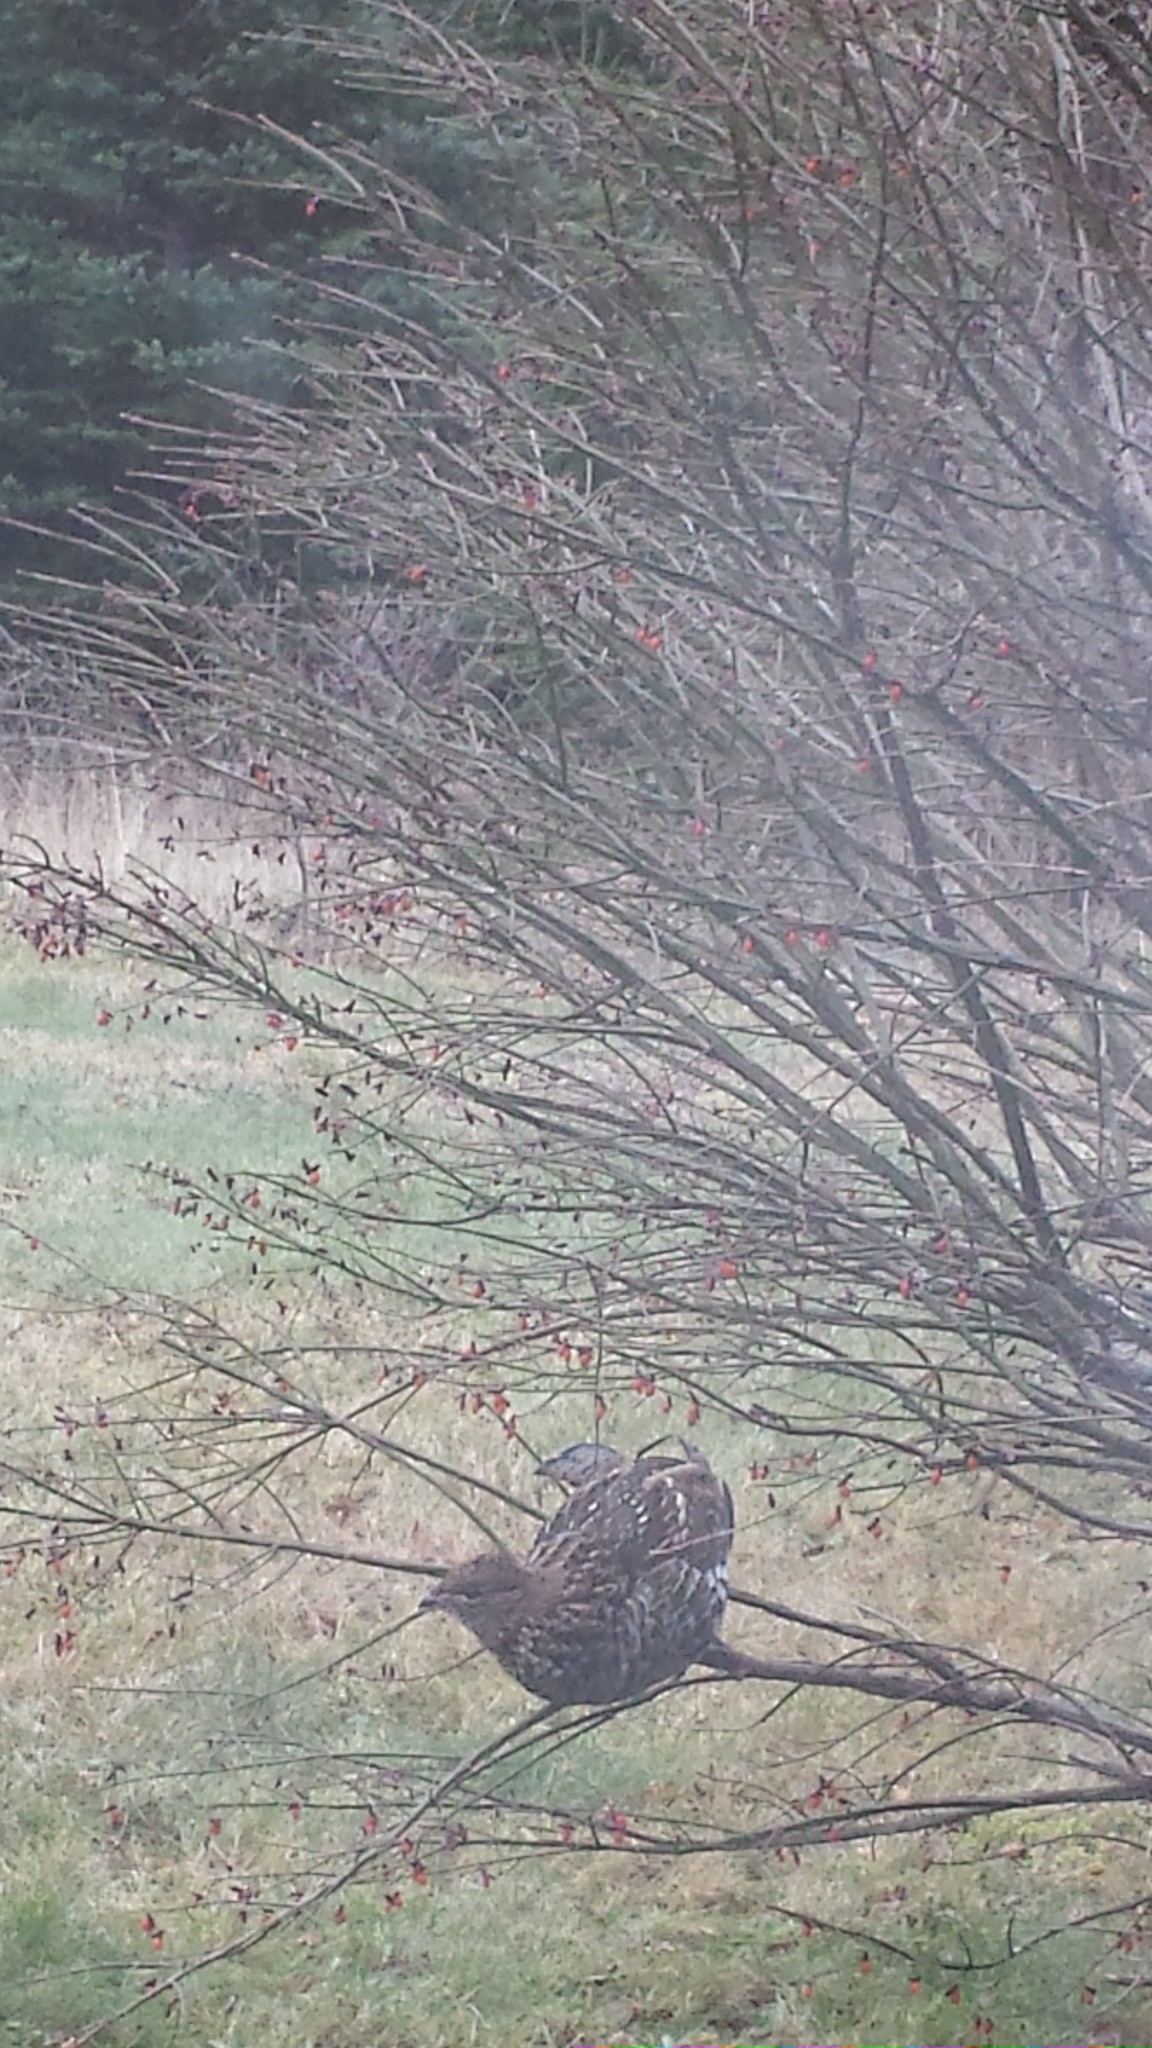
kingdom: Animalia
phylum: Chordata
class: Aves
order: Galliformes
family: Phasianidae
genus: Bonasa
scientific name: Bonasa umbellus
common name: Ruffed grouse
